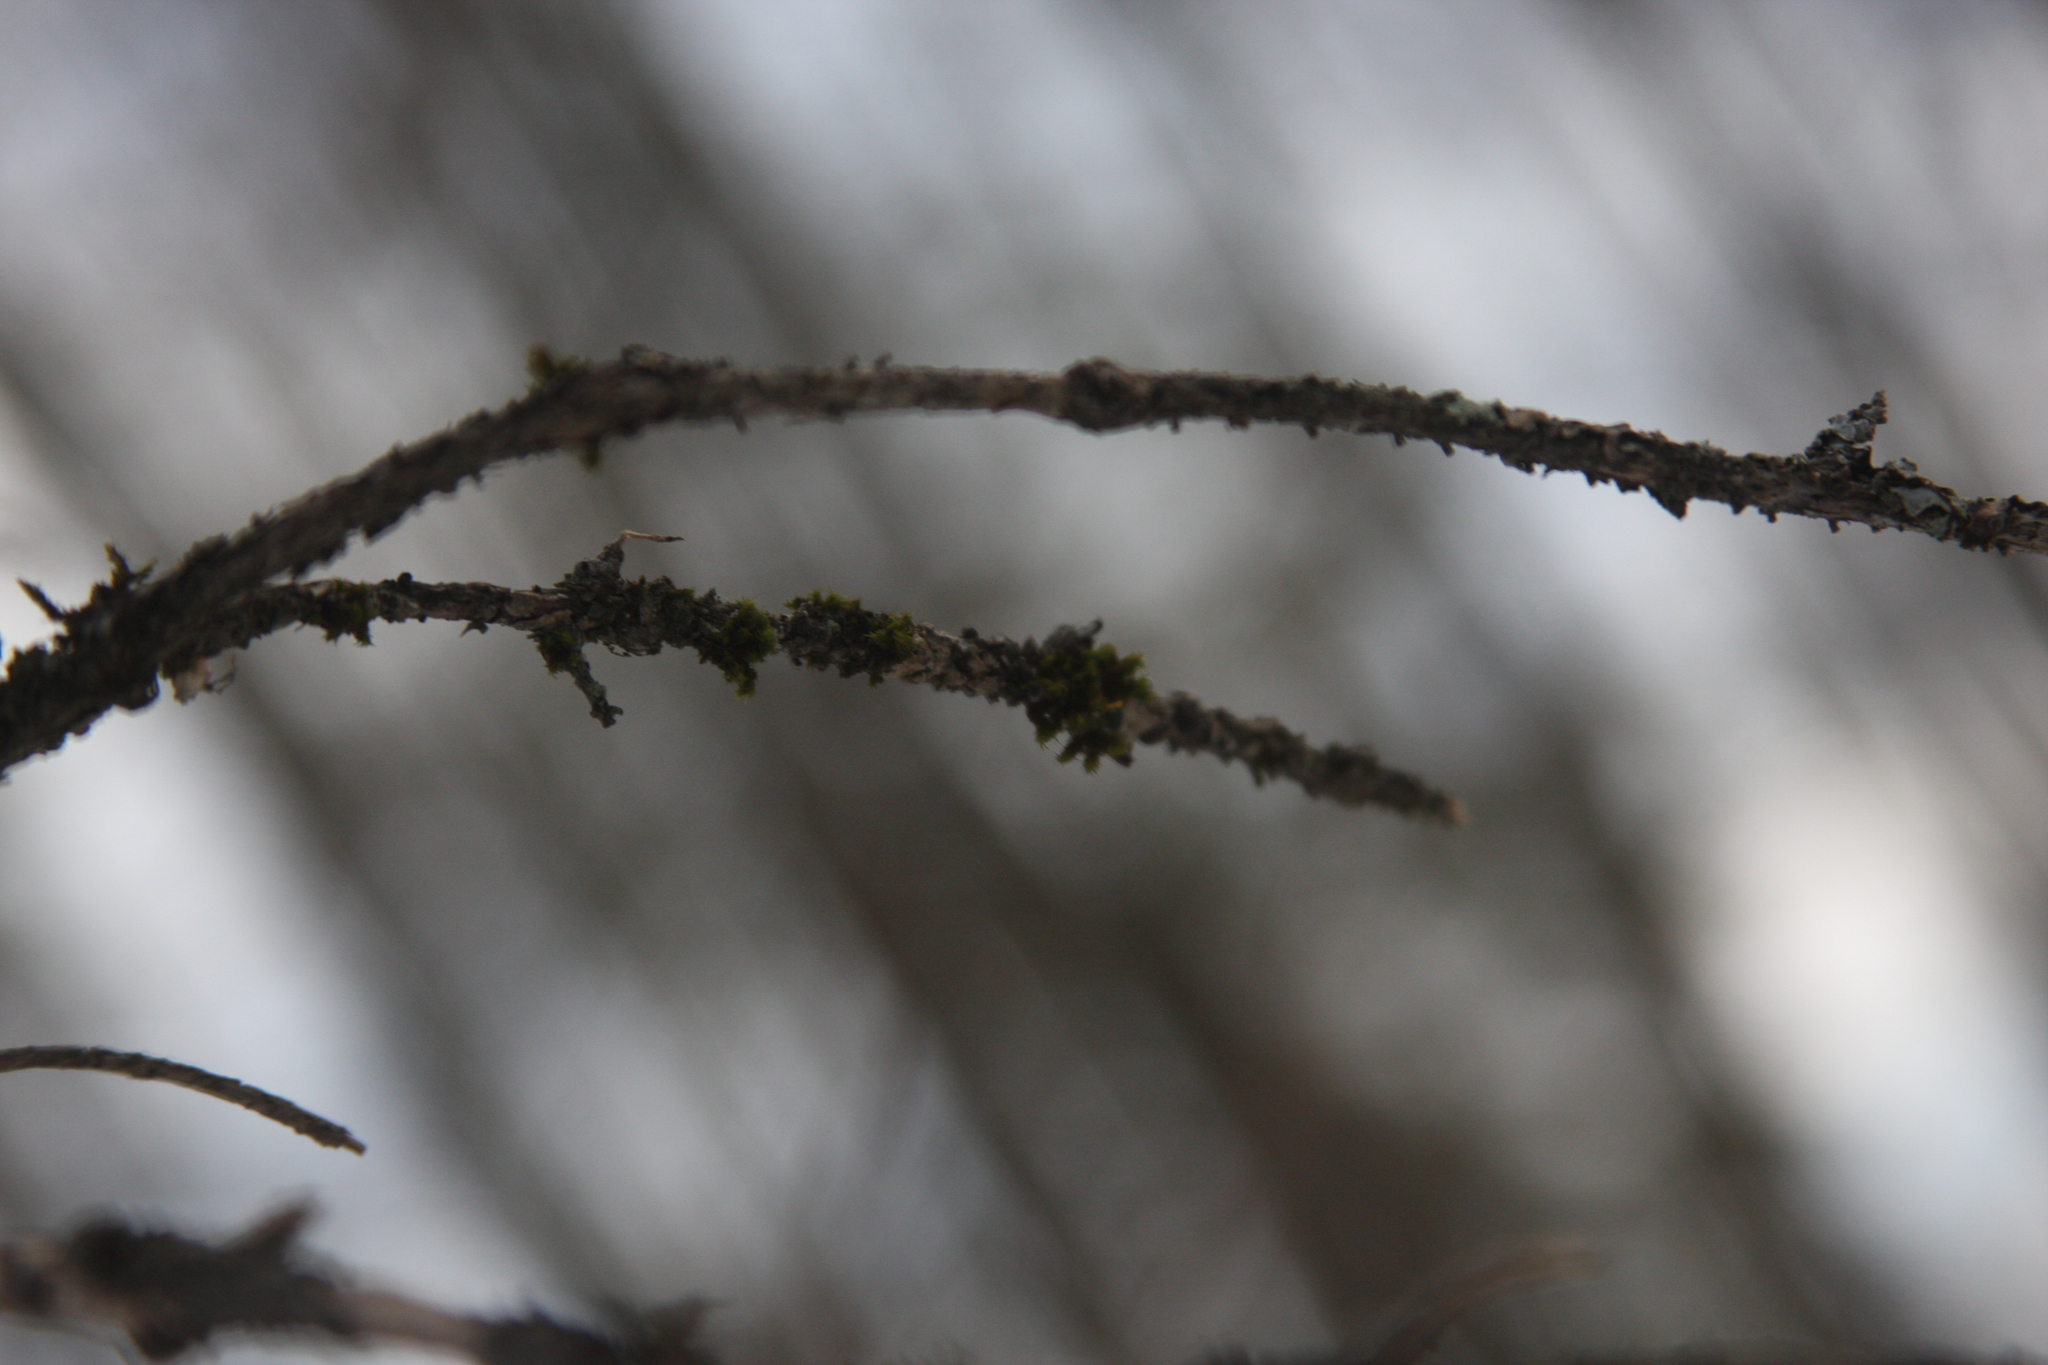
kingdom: Plantae
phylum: Bryophyta
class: Bryopsida
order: Orthotrichales
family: Orthotrichaceae
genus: Ulota
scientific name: Ulota crispa
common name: Crisped pincushion moss
